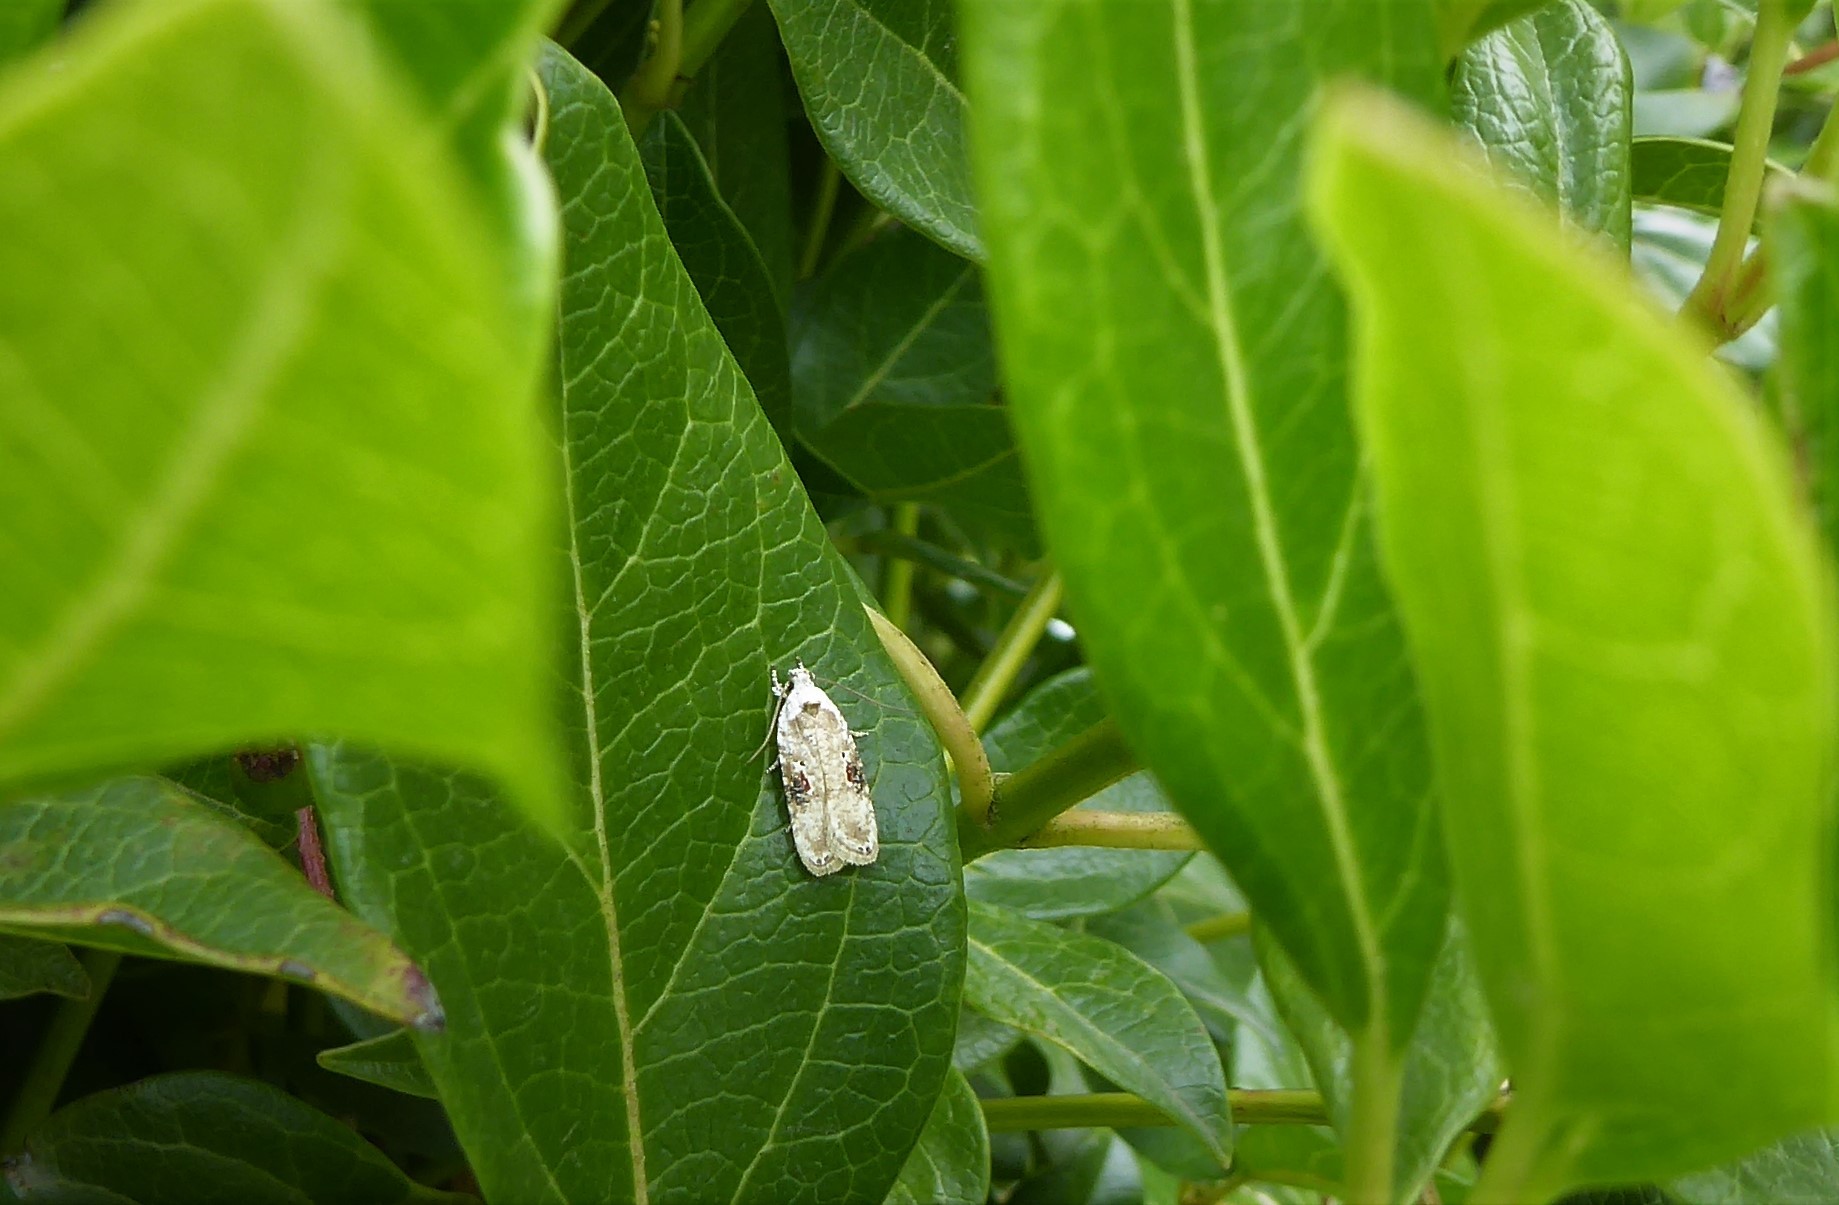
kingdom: Animalia
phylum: Arthropoda
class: Insecta
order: Lepidoptera
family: Depressariidae
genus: Agonopterix
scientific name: Agonopterix alstroemeriana
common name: Moth
